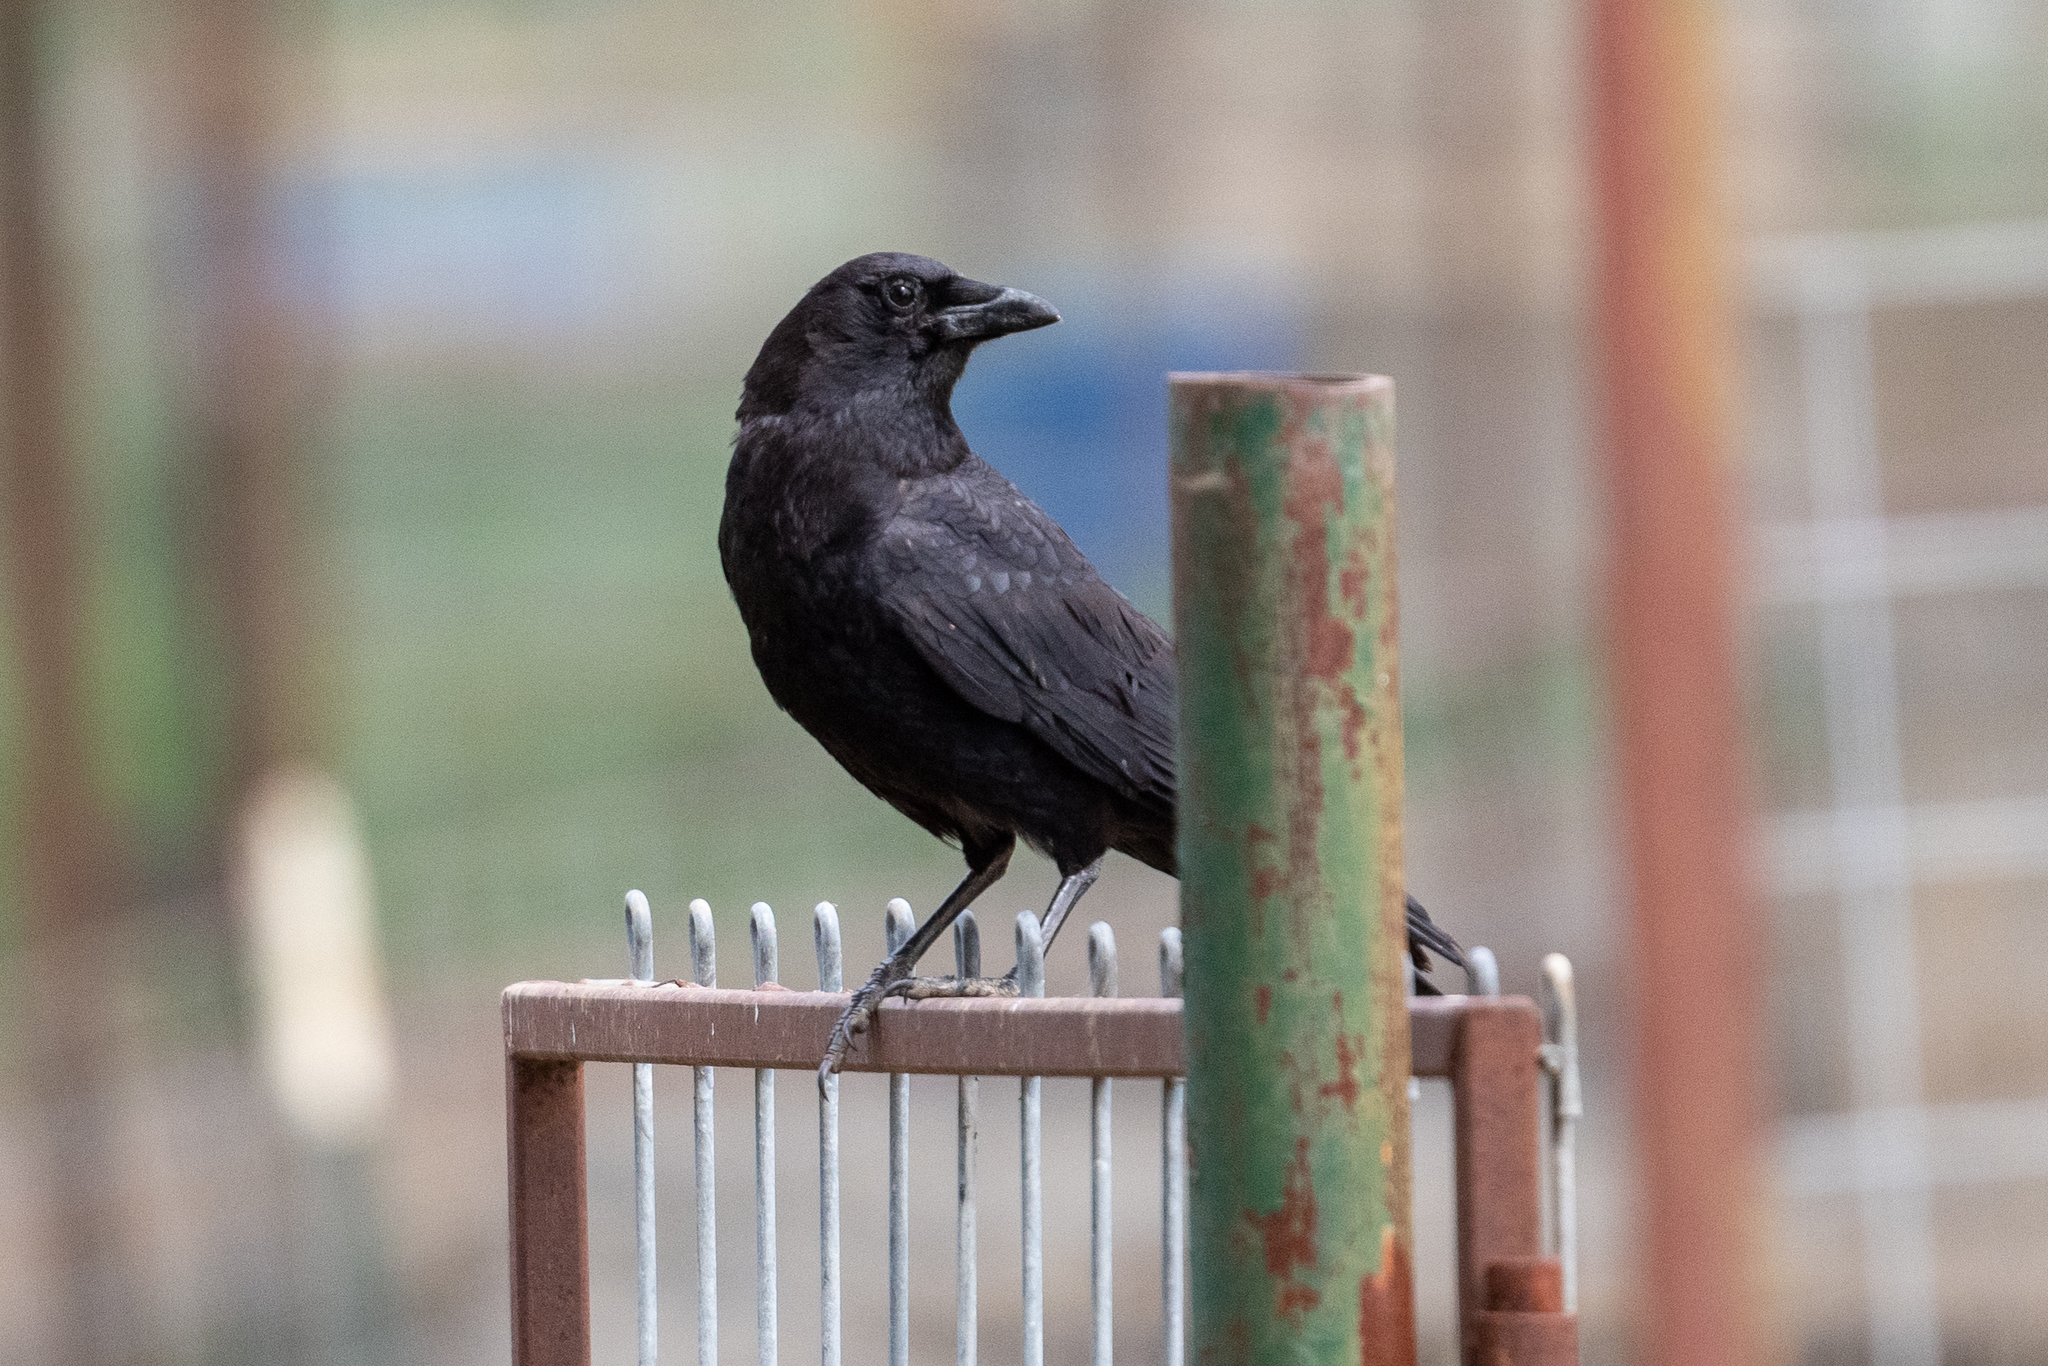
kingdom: Animalia
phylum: Chordata
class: Aves
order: Passeriformes
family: Corvidae
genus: Corvus
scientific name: Corvus brachyrhynchos
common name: American crow
